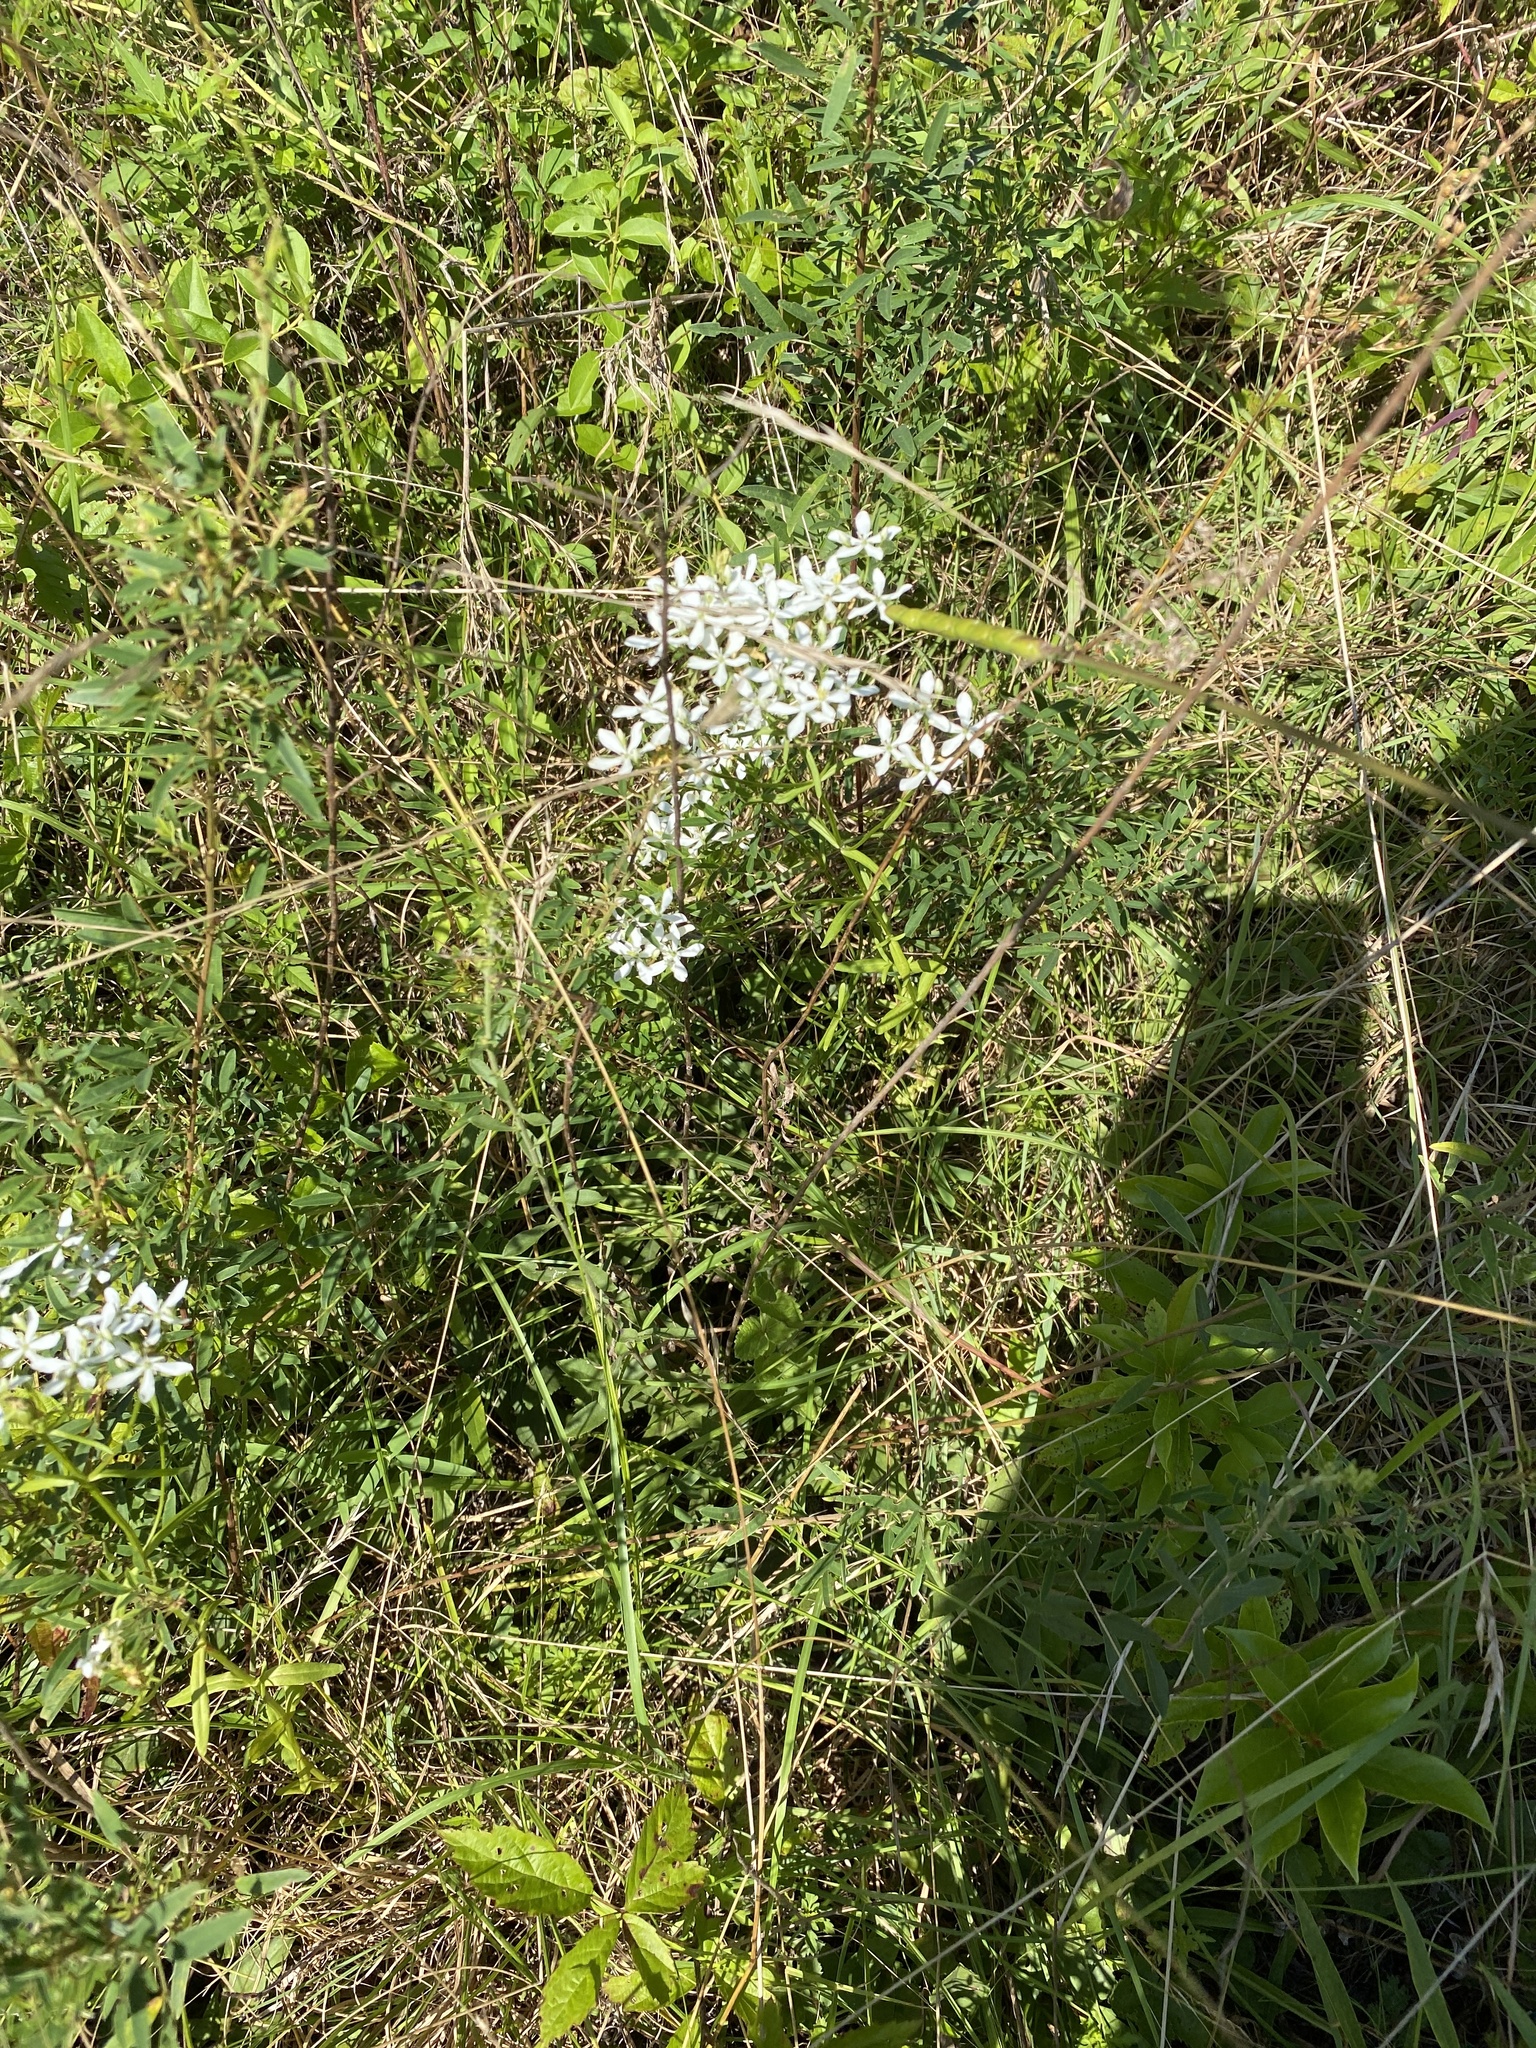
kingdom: Plantae
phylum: Tracheophyta
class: Magnoliopsida
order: Gentianales
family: Gentianaceae
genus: Sabatia
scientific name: Sabatia quadrangula
